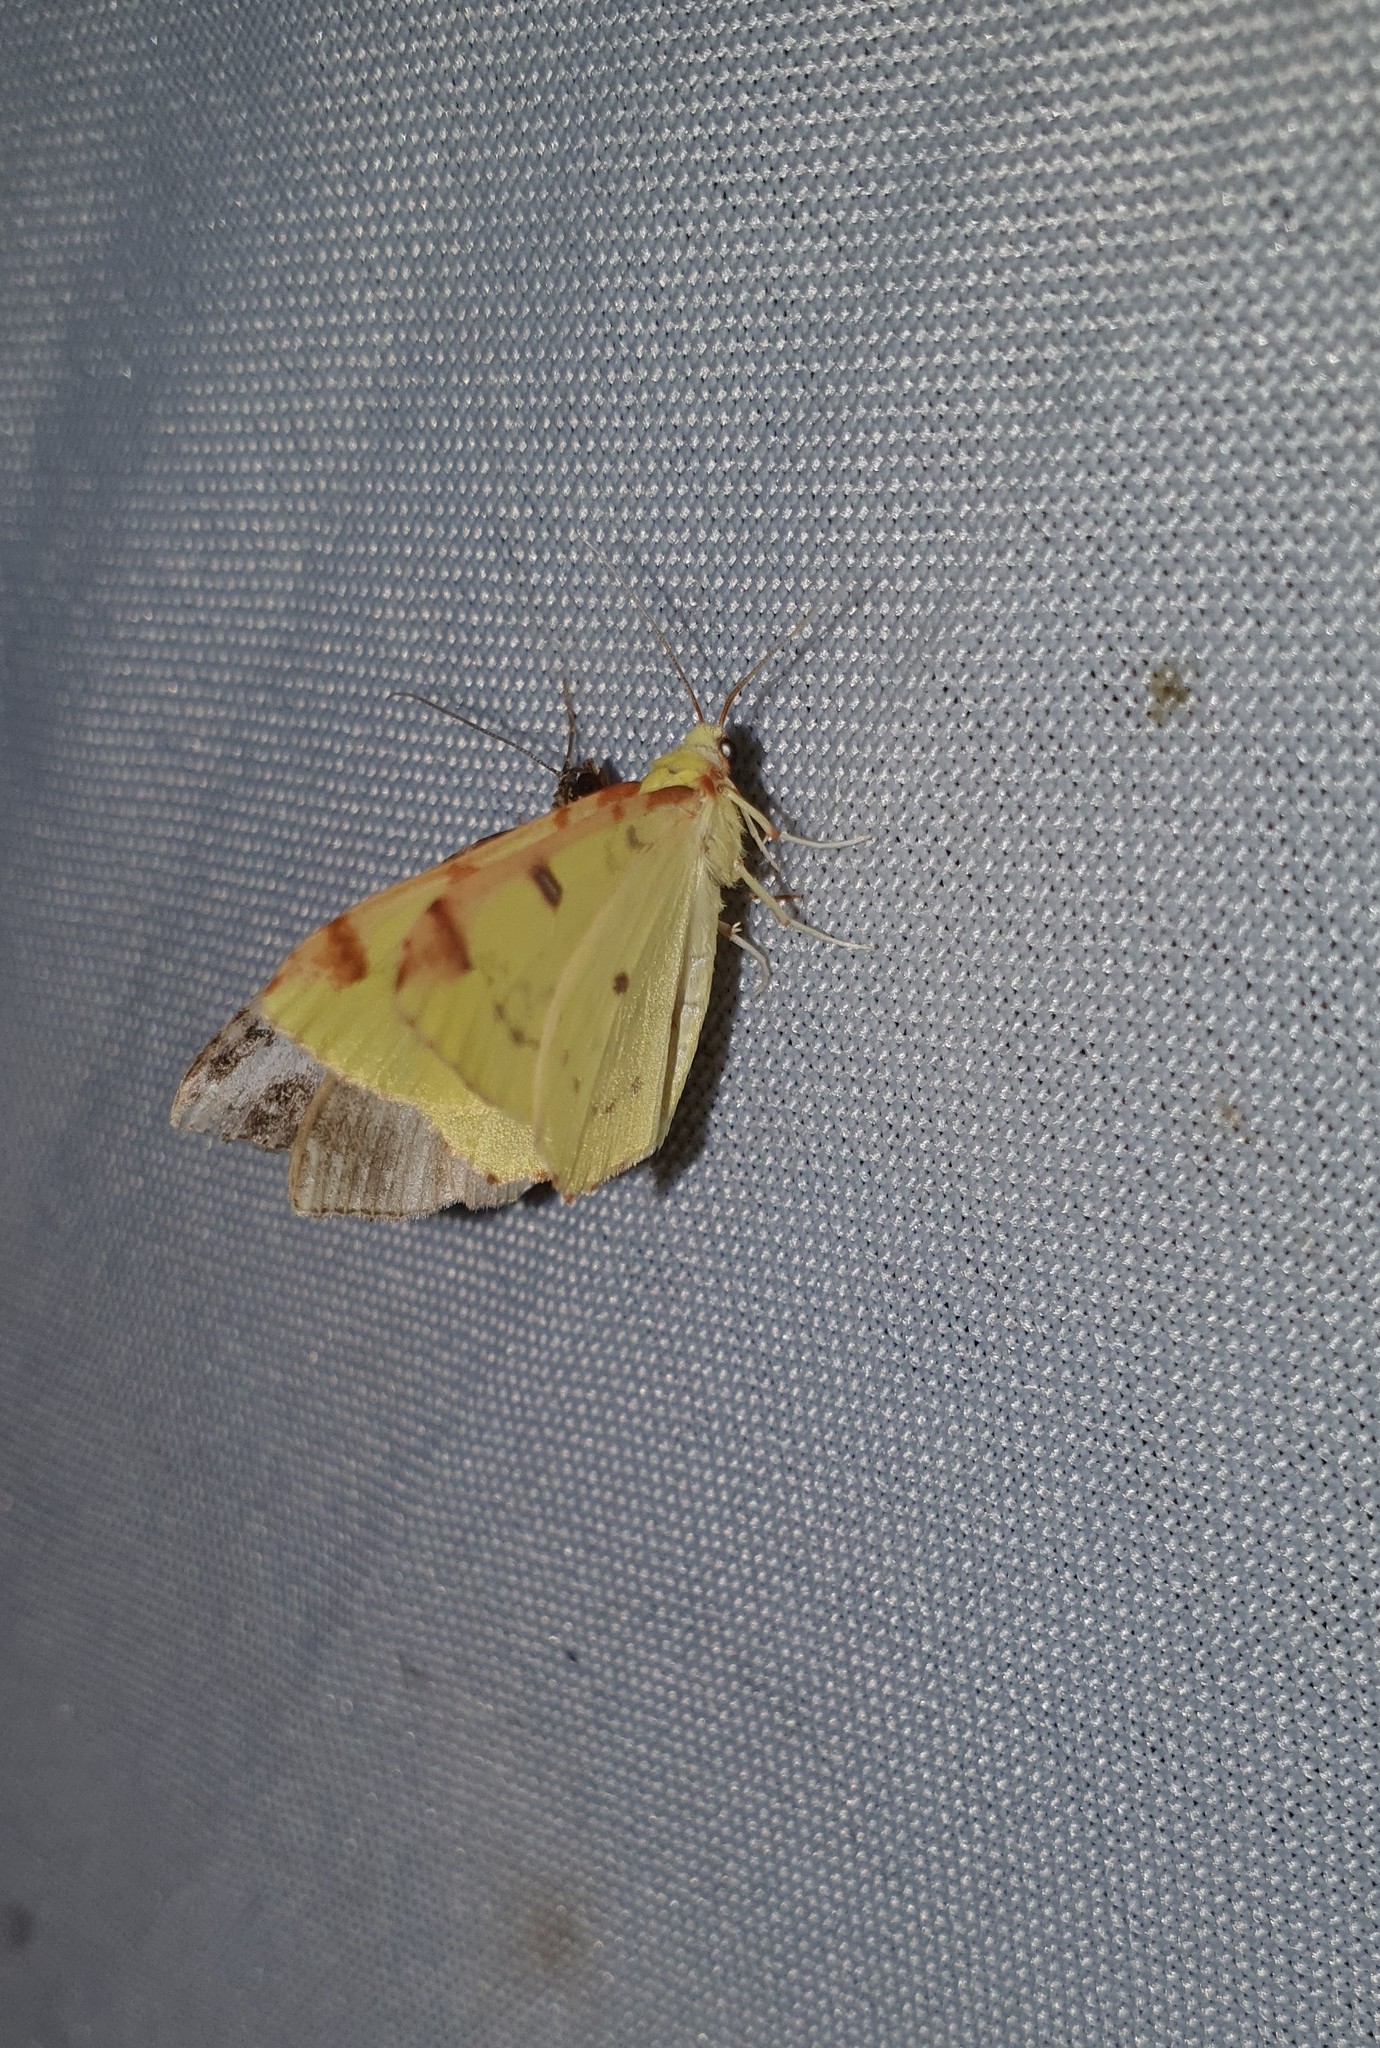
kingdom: Animalia
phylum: Arthropoda
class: Insecta
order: Lepidoptera
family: Geometridae
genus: Opisthograptis
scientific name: Opisthograptis luteolata
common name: Brimstone moth
